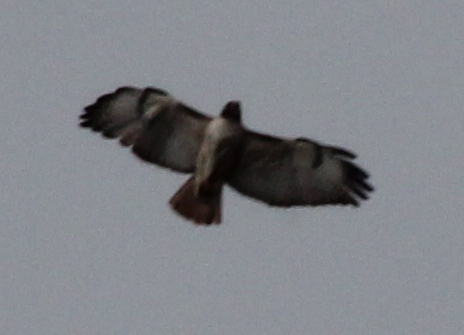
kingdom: Animalia
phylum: Chordata
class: Aves
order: Accipitriformes
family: Accipitridae
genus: Buteo
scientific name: Buteo jamaicensis
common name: Red-tailed hawk
